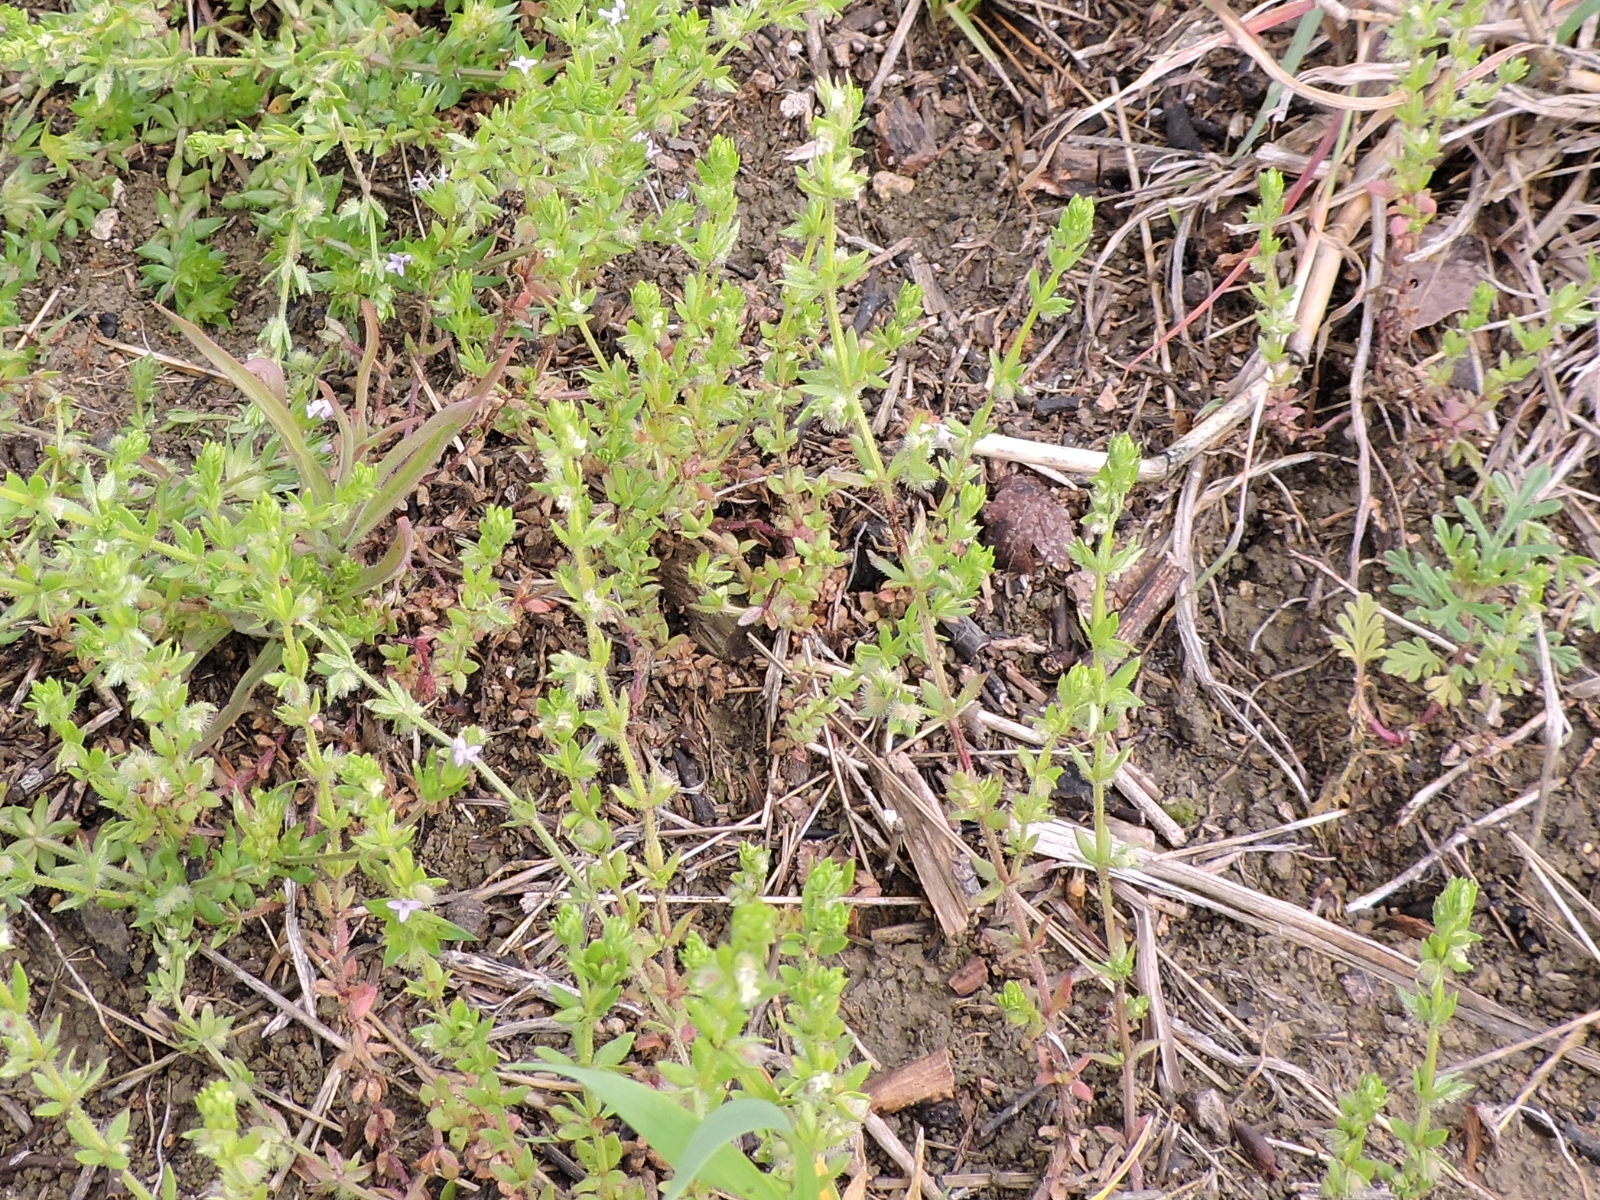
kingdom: Plantae
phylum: Tracheophyta
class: Magnoliopsida
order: Gentianales
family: Rubiaceae
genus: Galium
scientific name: Galium virgatum
